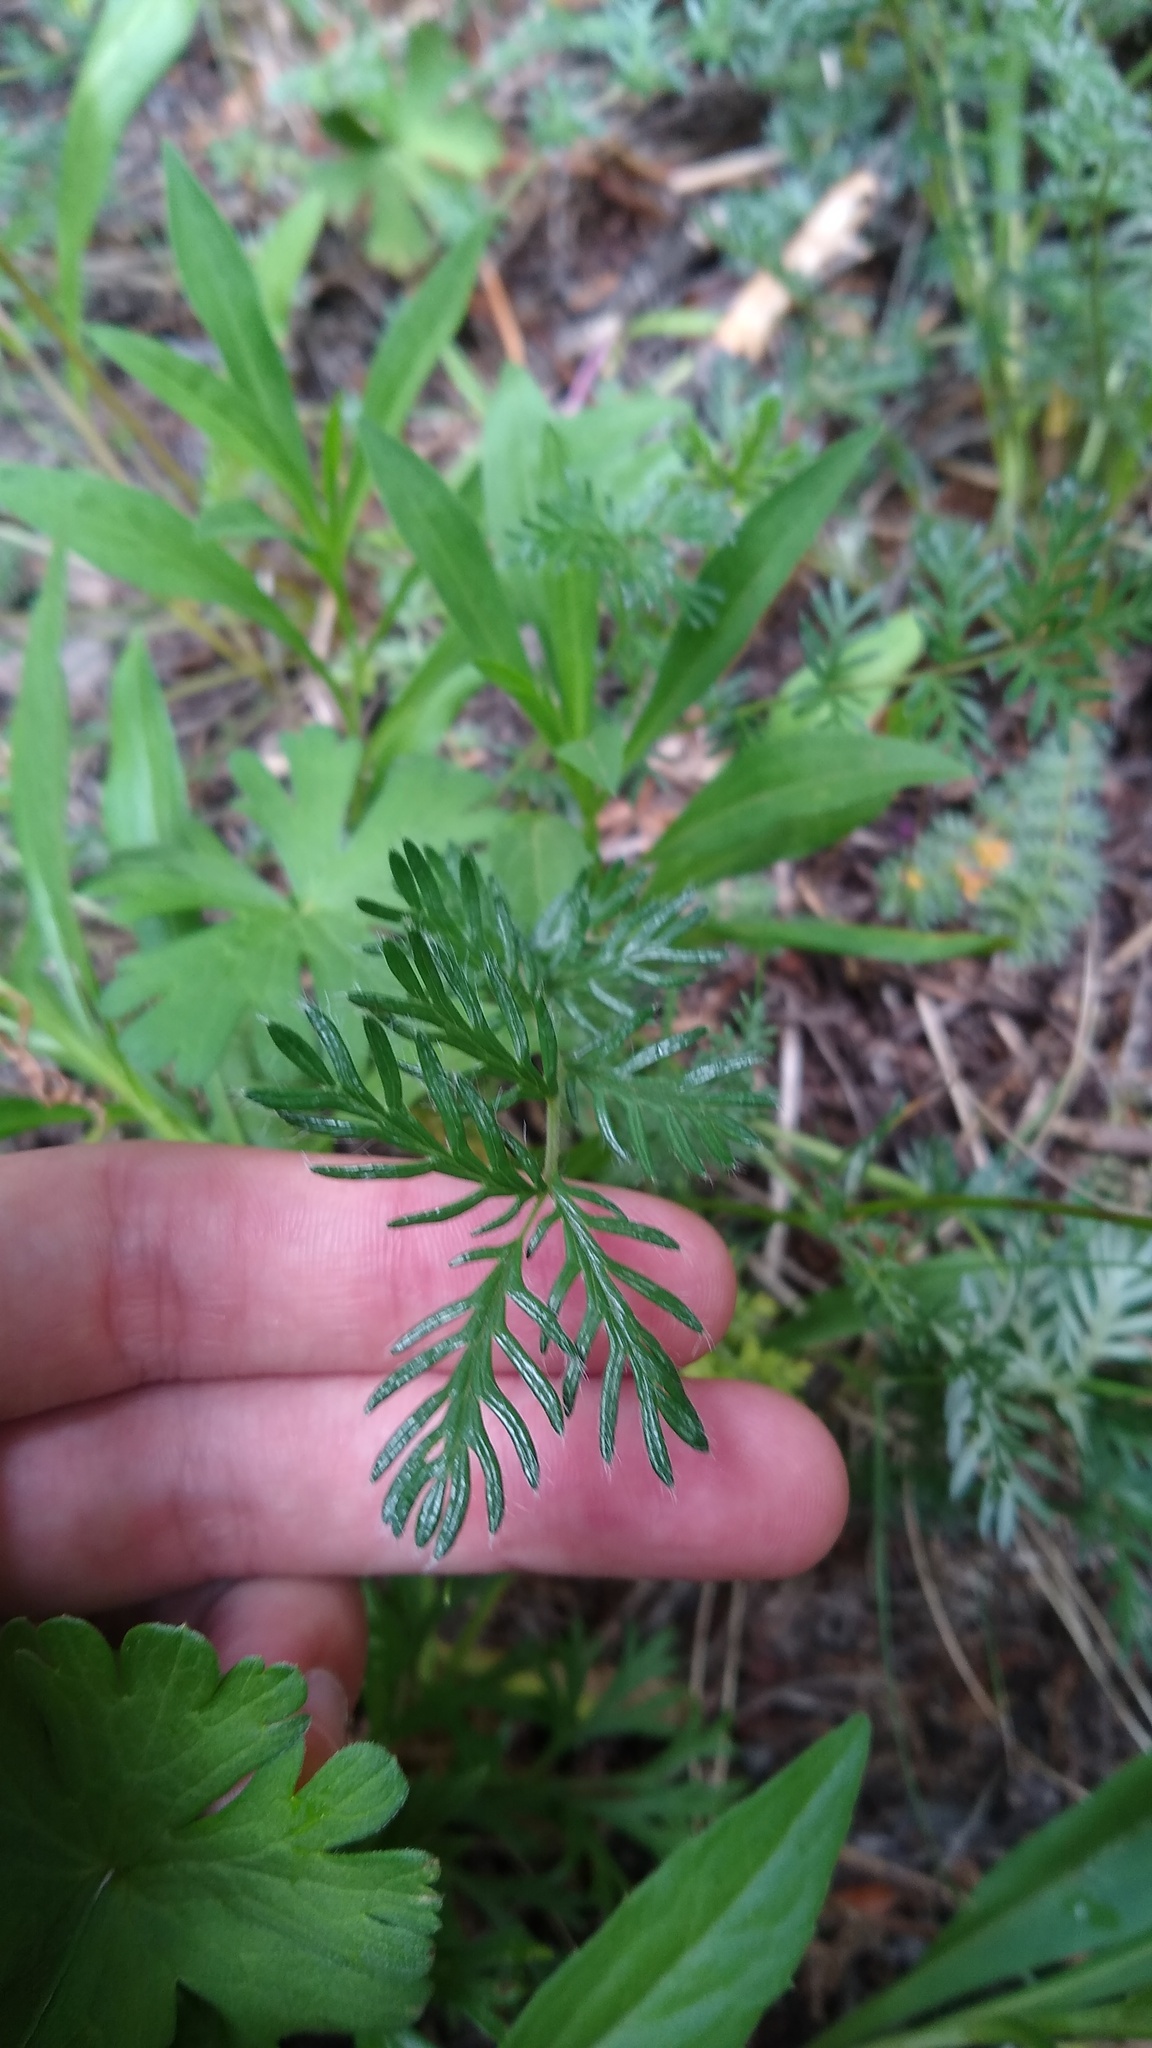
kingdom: Plantae
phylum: Tracheophyta
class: Magnoliopsida
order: Asterales
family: Asteraceae
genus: Leucheria
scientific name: Leucheria achillaeifolia
